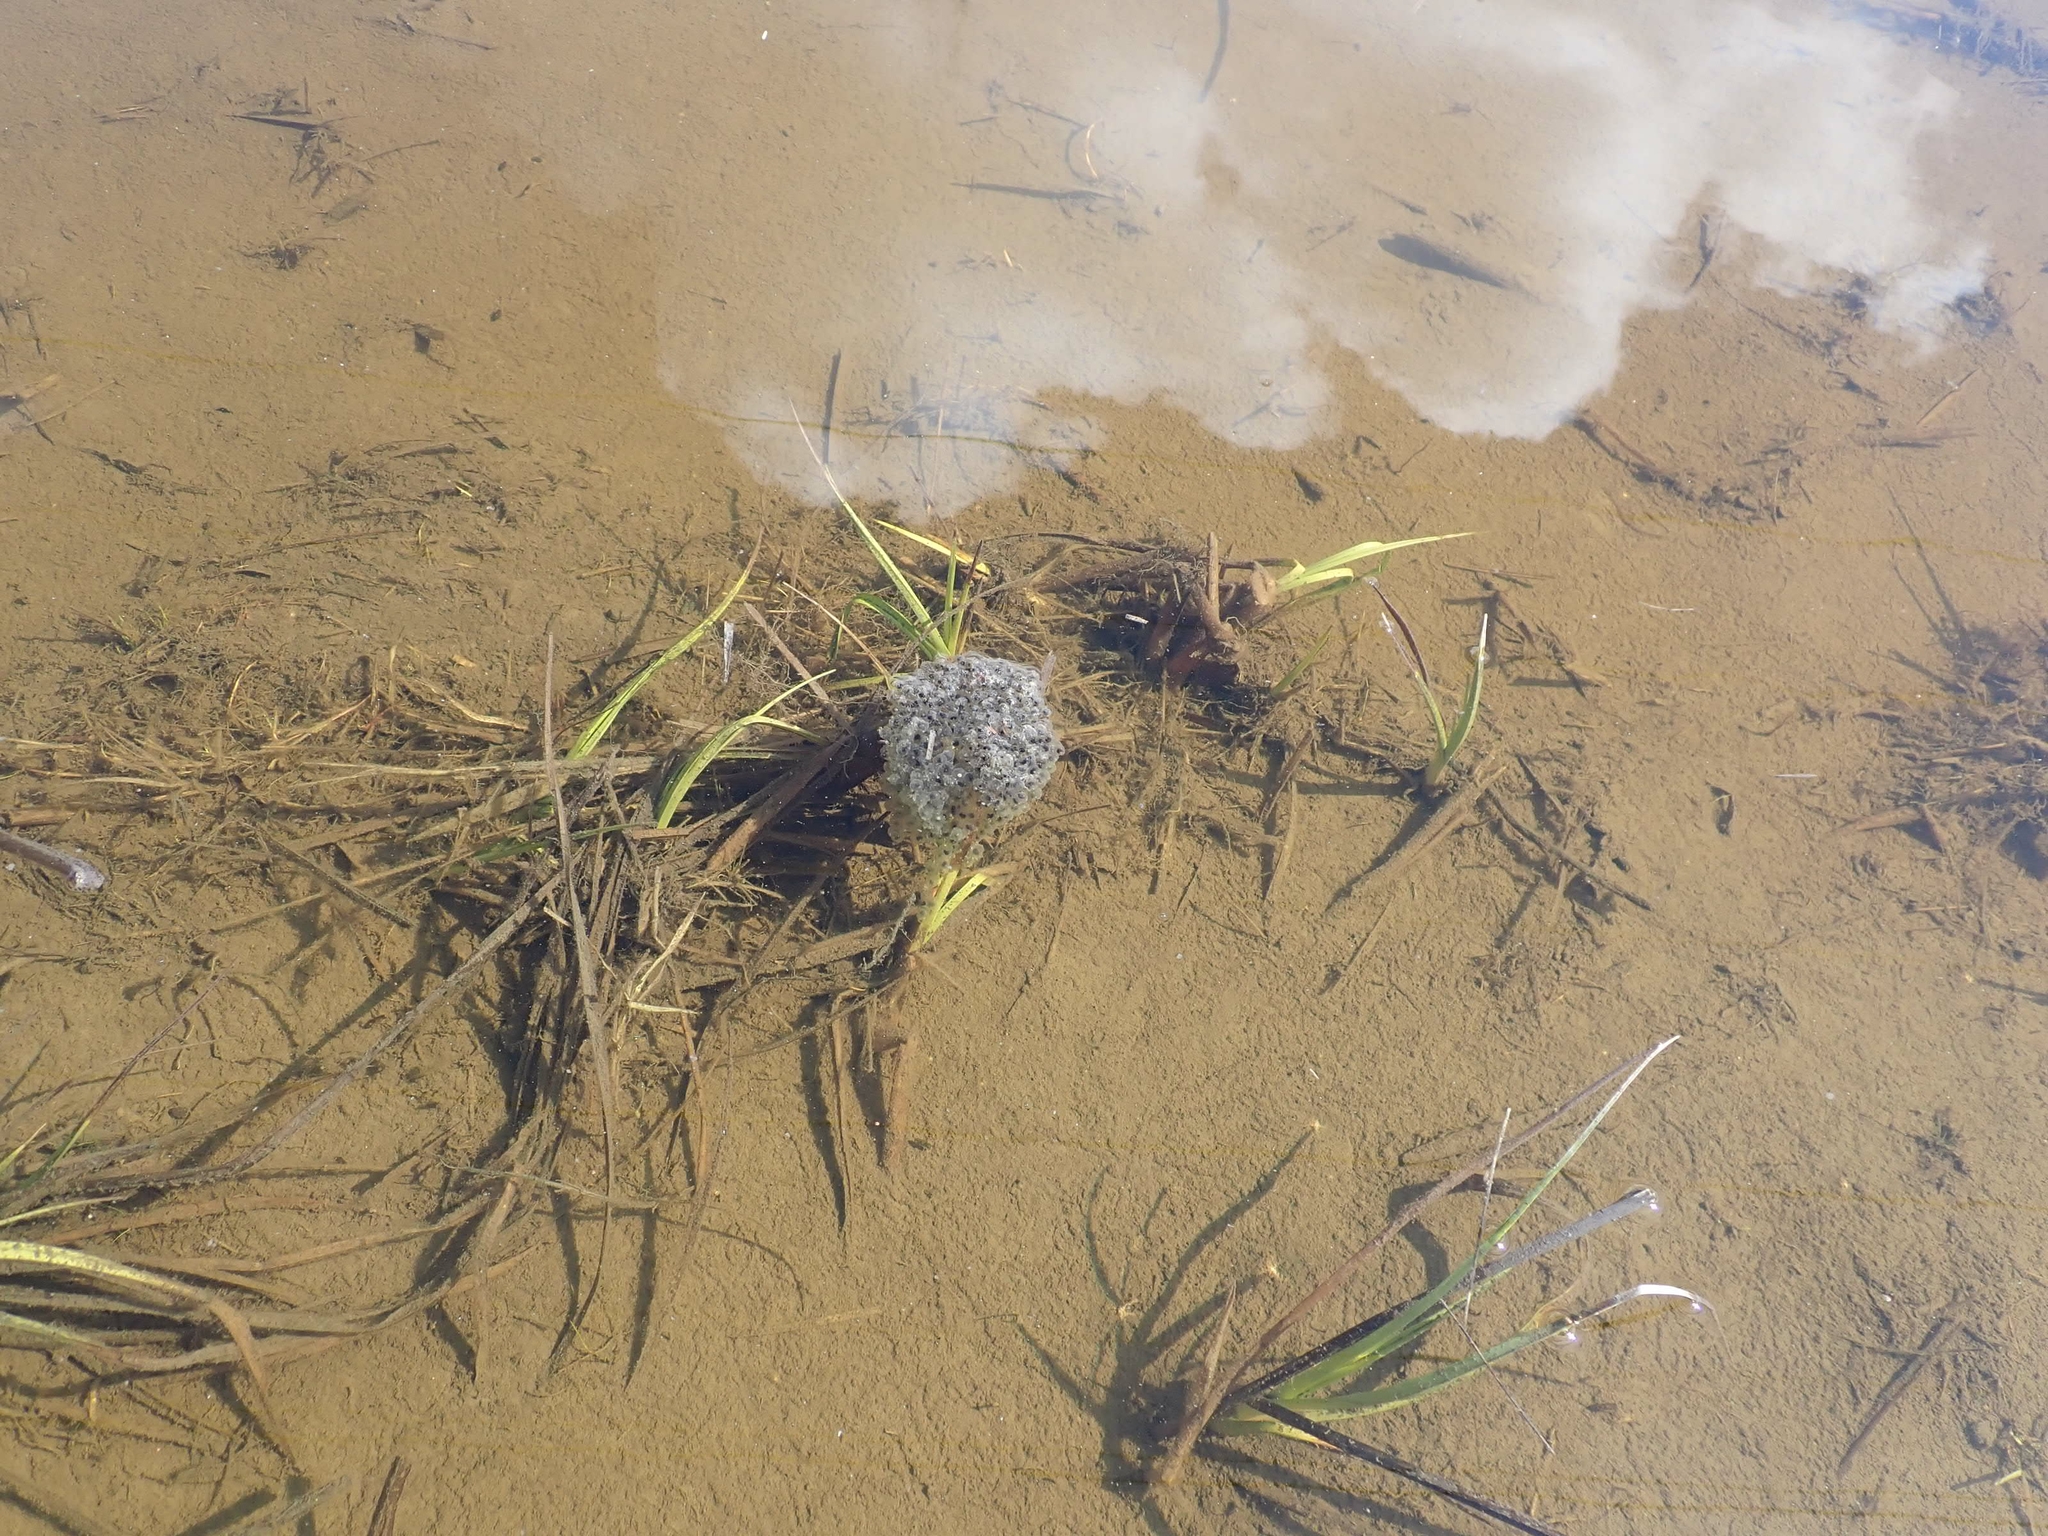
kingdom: Animalia
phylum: Chordata
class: Amphibia
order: Anura
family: Ranidae
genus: Lithobates
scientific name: Lithobates sylvaticus
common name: Wood frog
